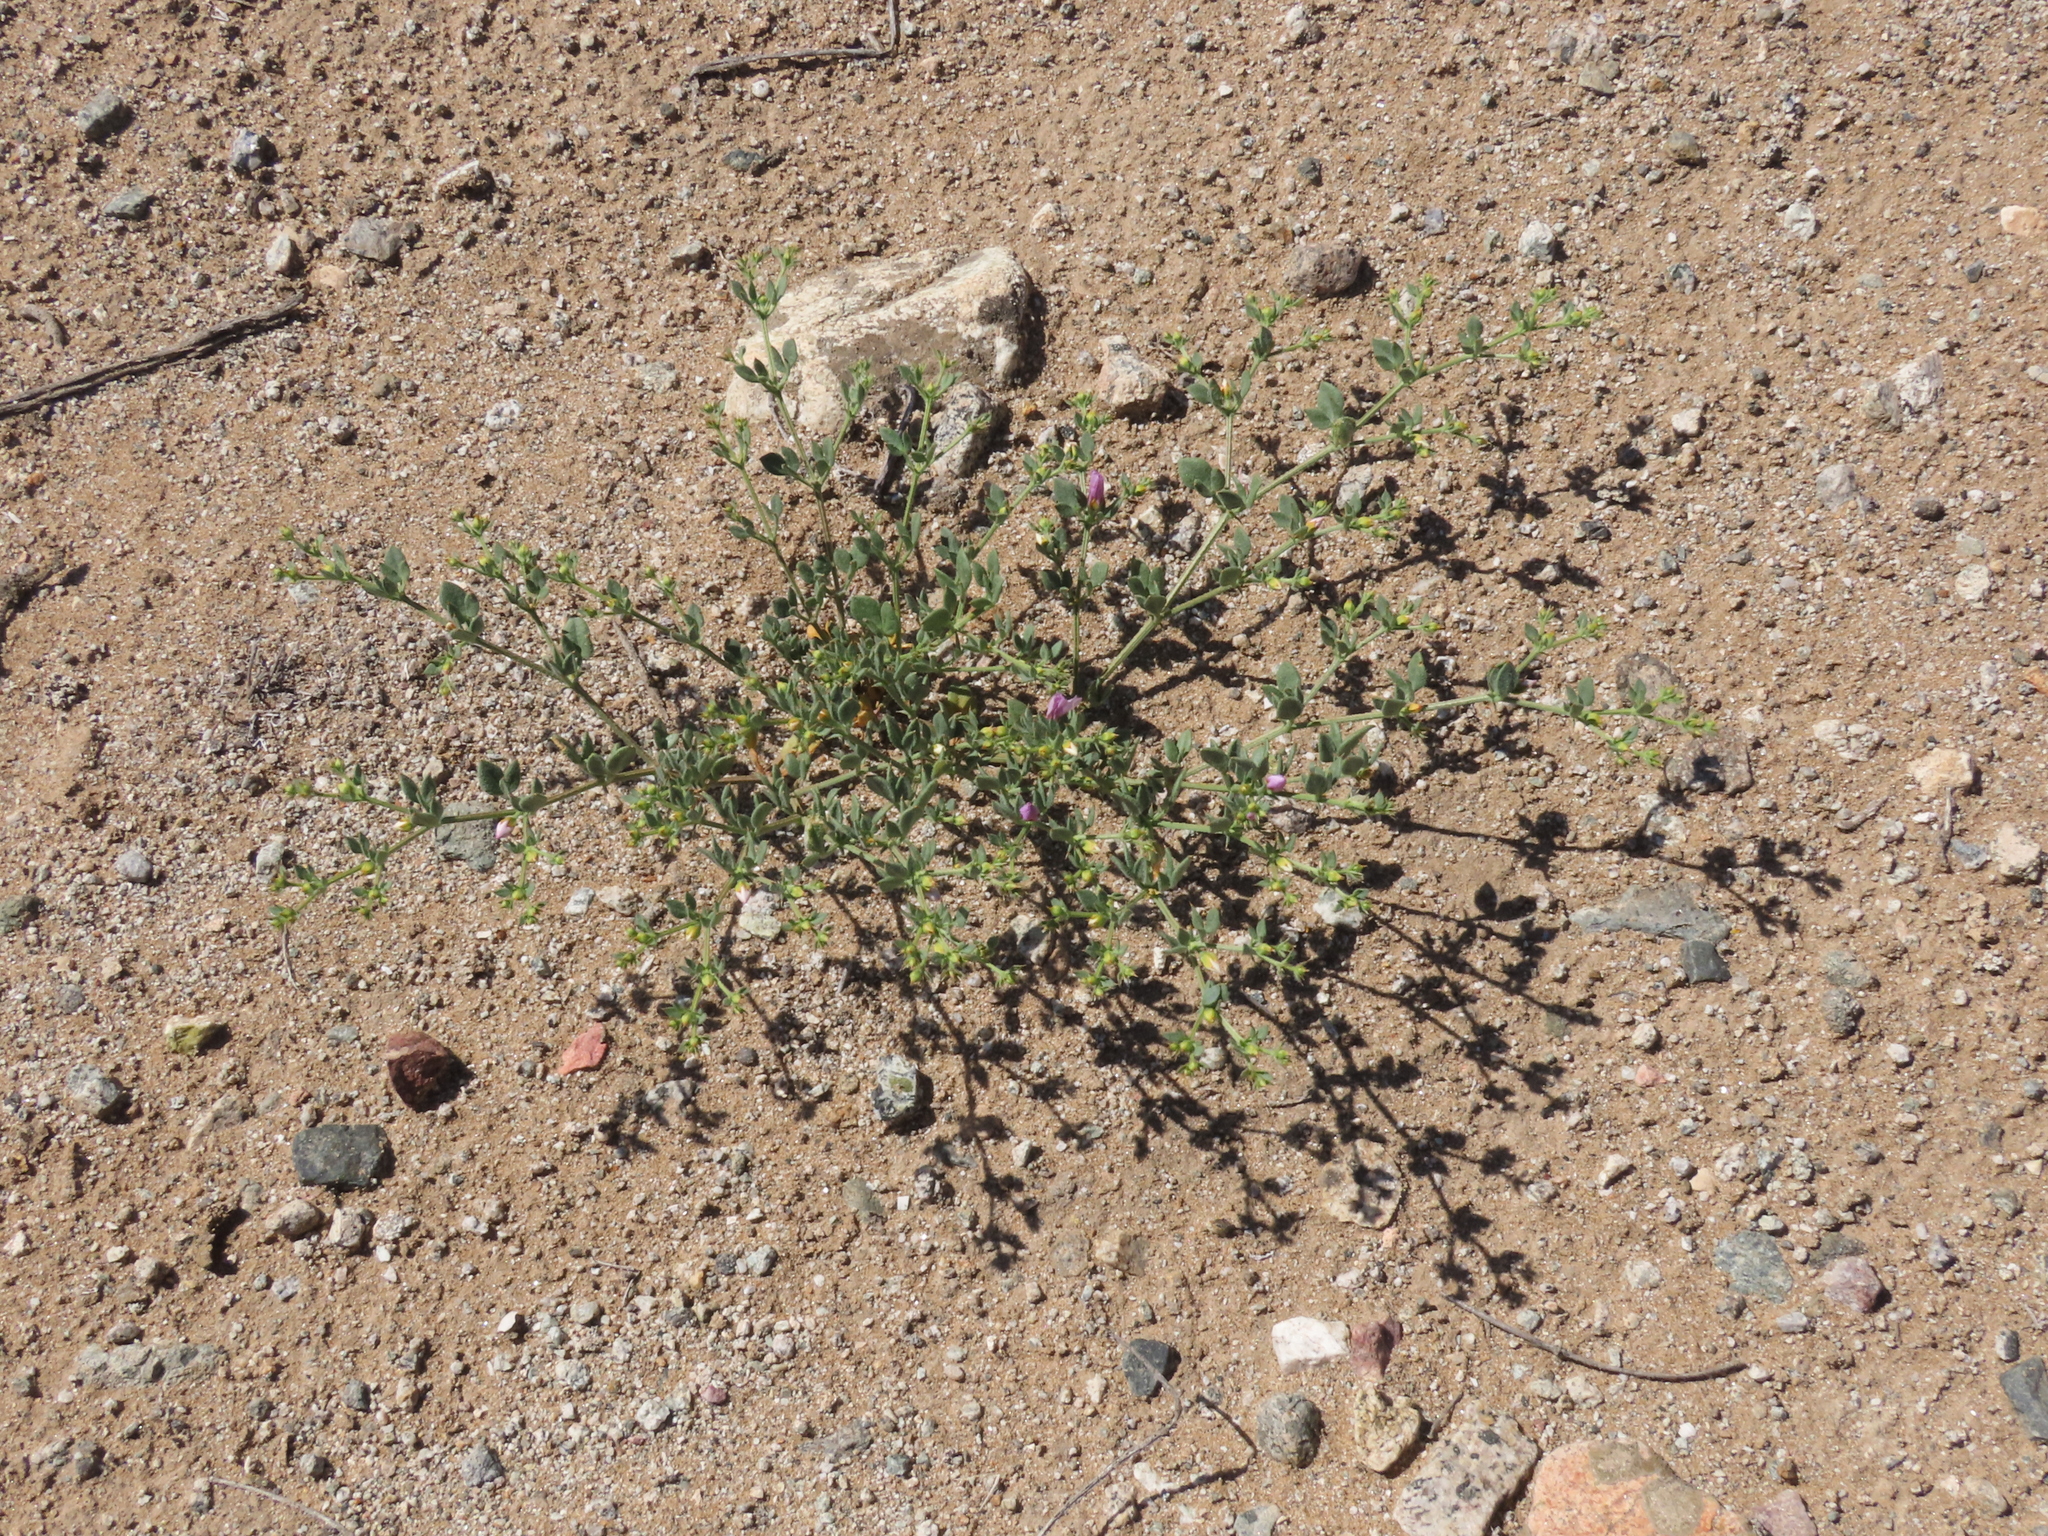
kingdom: Plantae
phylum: Tracheophyta
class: Magnoliopsida
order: Zygophyllales
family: Zygophyllaceae
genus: Fagonia
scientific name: Fagonia chilensis
